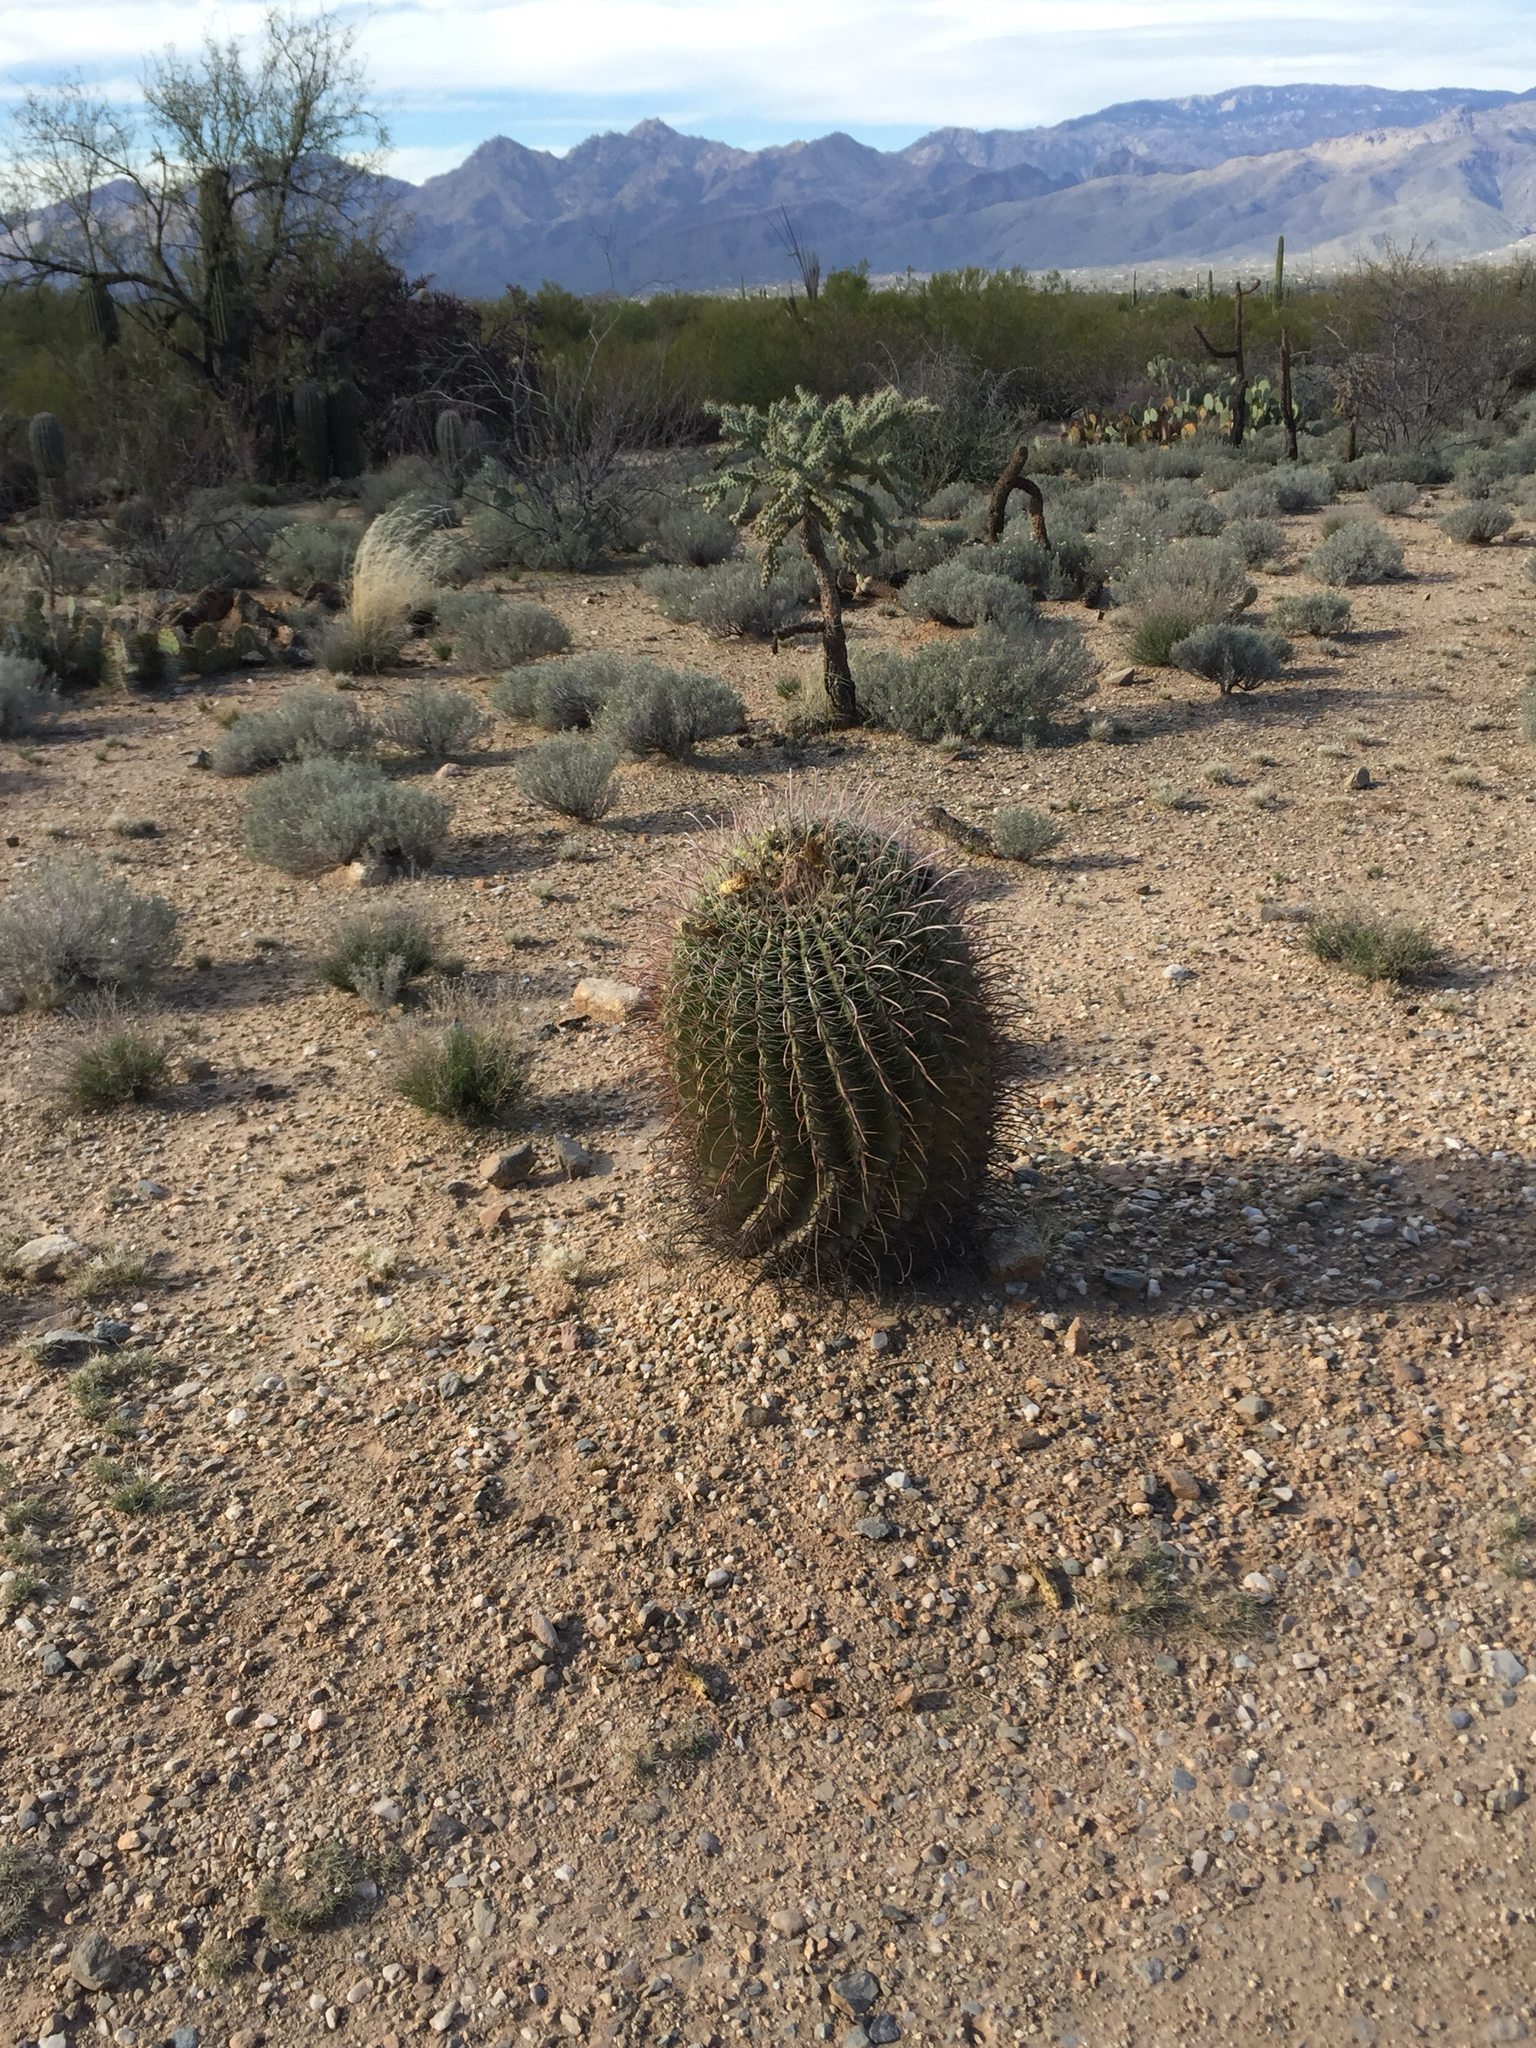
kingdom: Plantae
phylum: Tracheophyta
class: Magnoliopsida
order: Caryophyllales
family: Cactaceae
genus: Ferocactus
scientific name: Ferocactus wislizeni
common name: Candy barrel cactus
